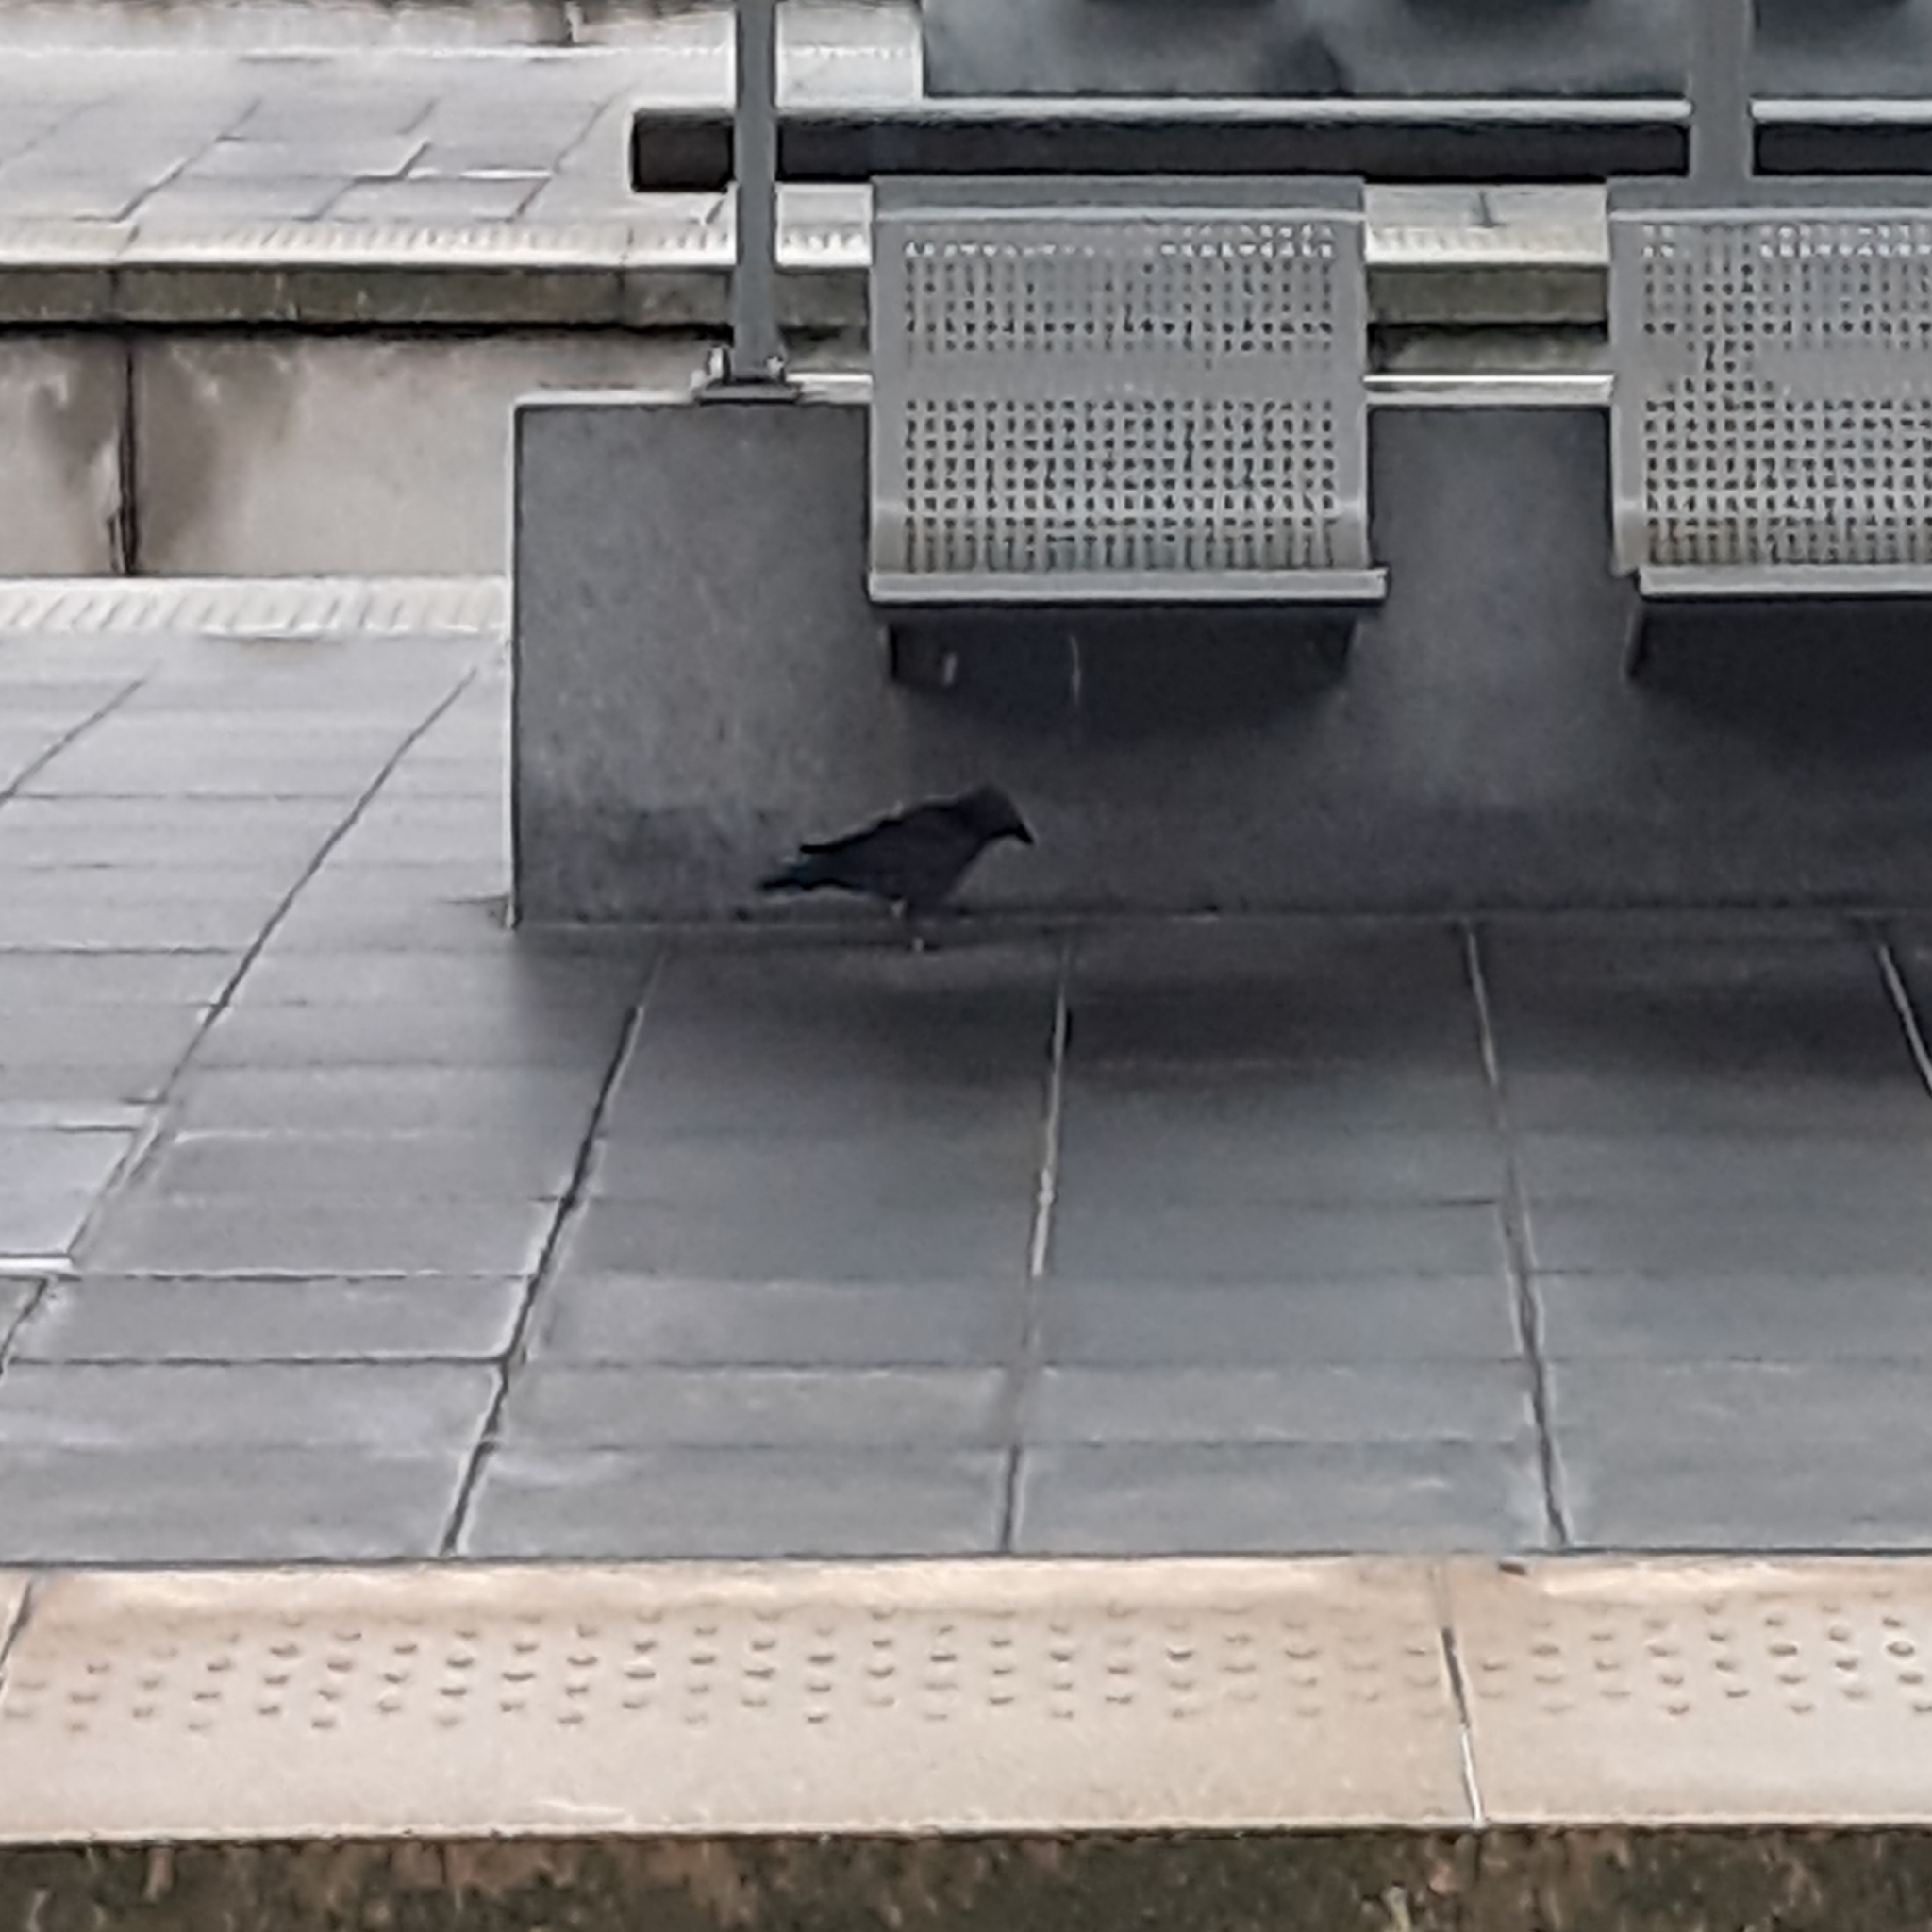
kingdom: Animalia
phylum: Chordata
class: Aves
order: Passeriformes
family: Corvidae
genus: Coloeus
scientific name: Coloeus monedula
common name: Western jackdaw
